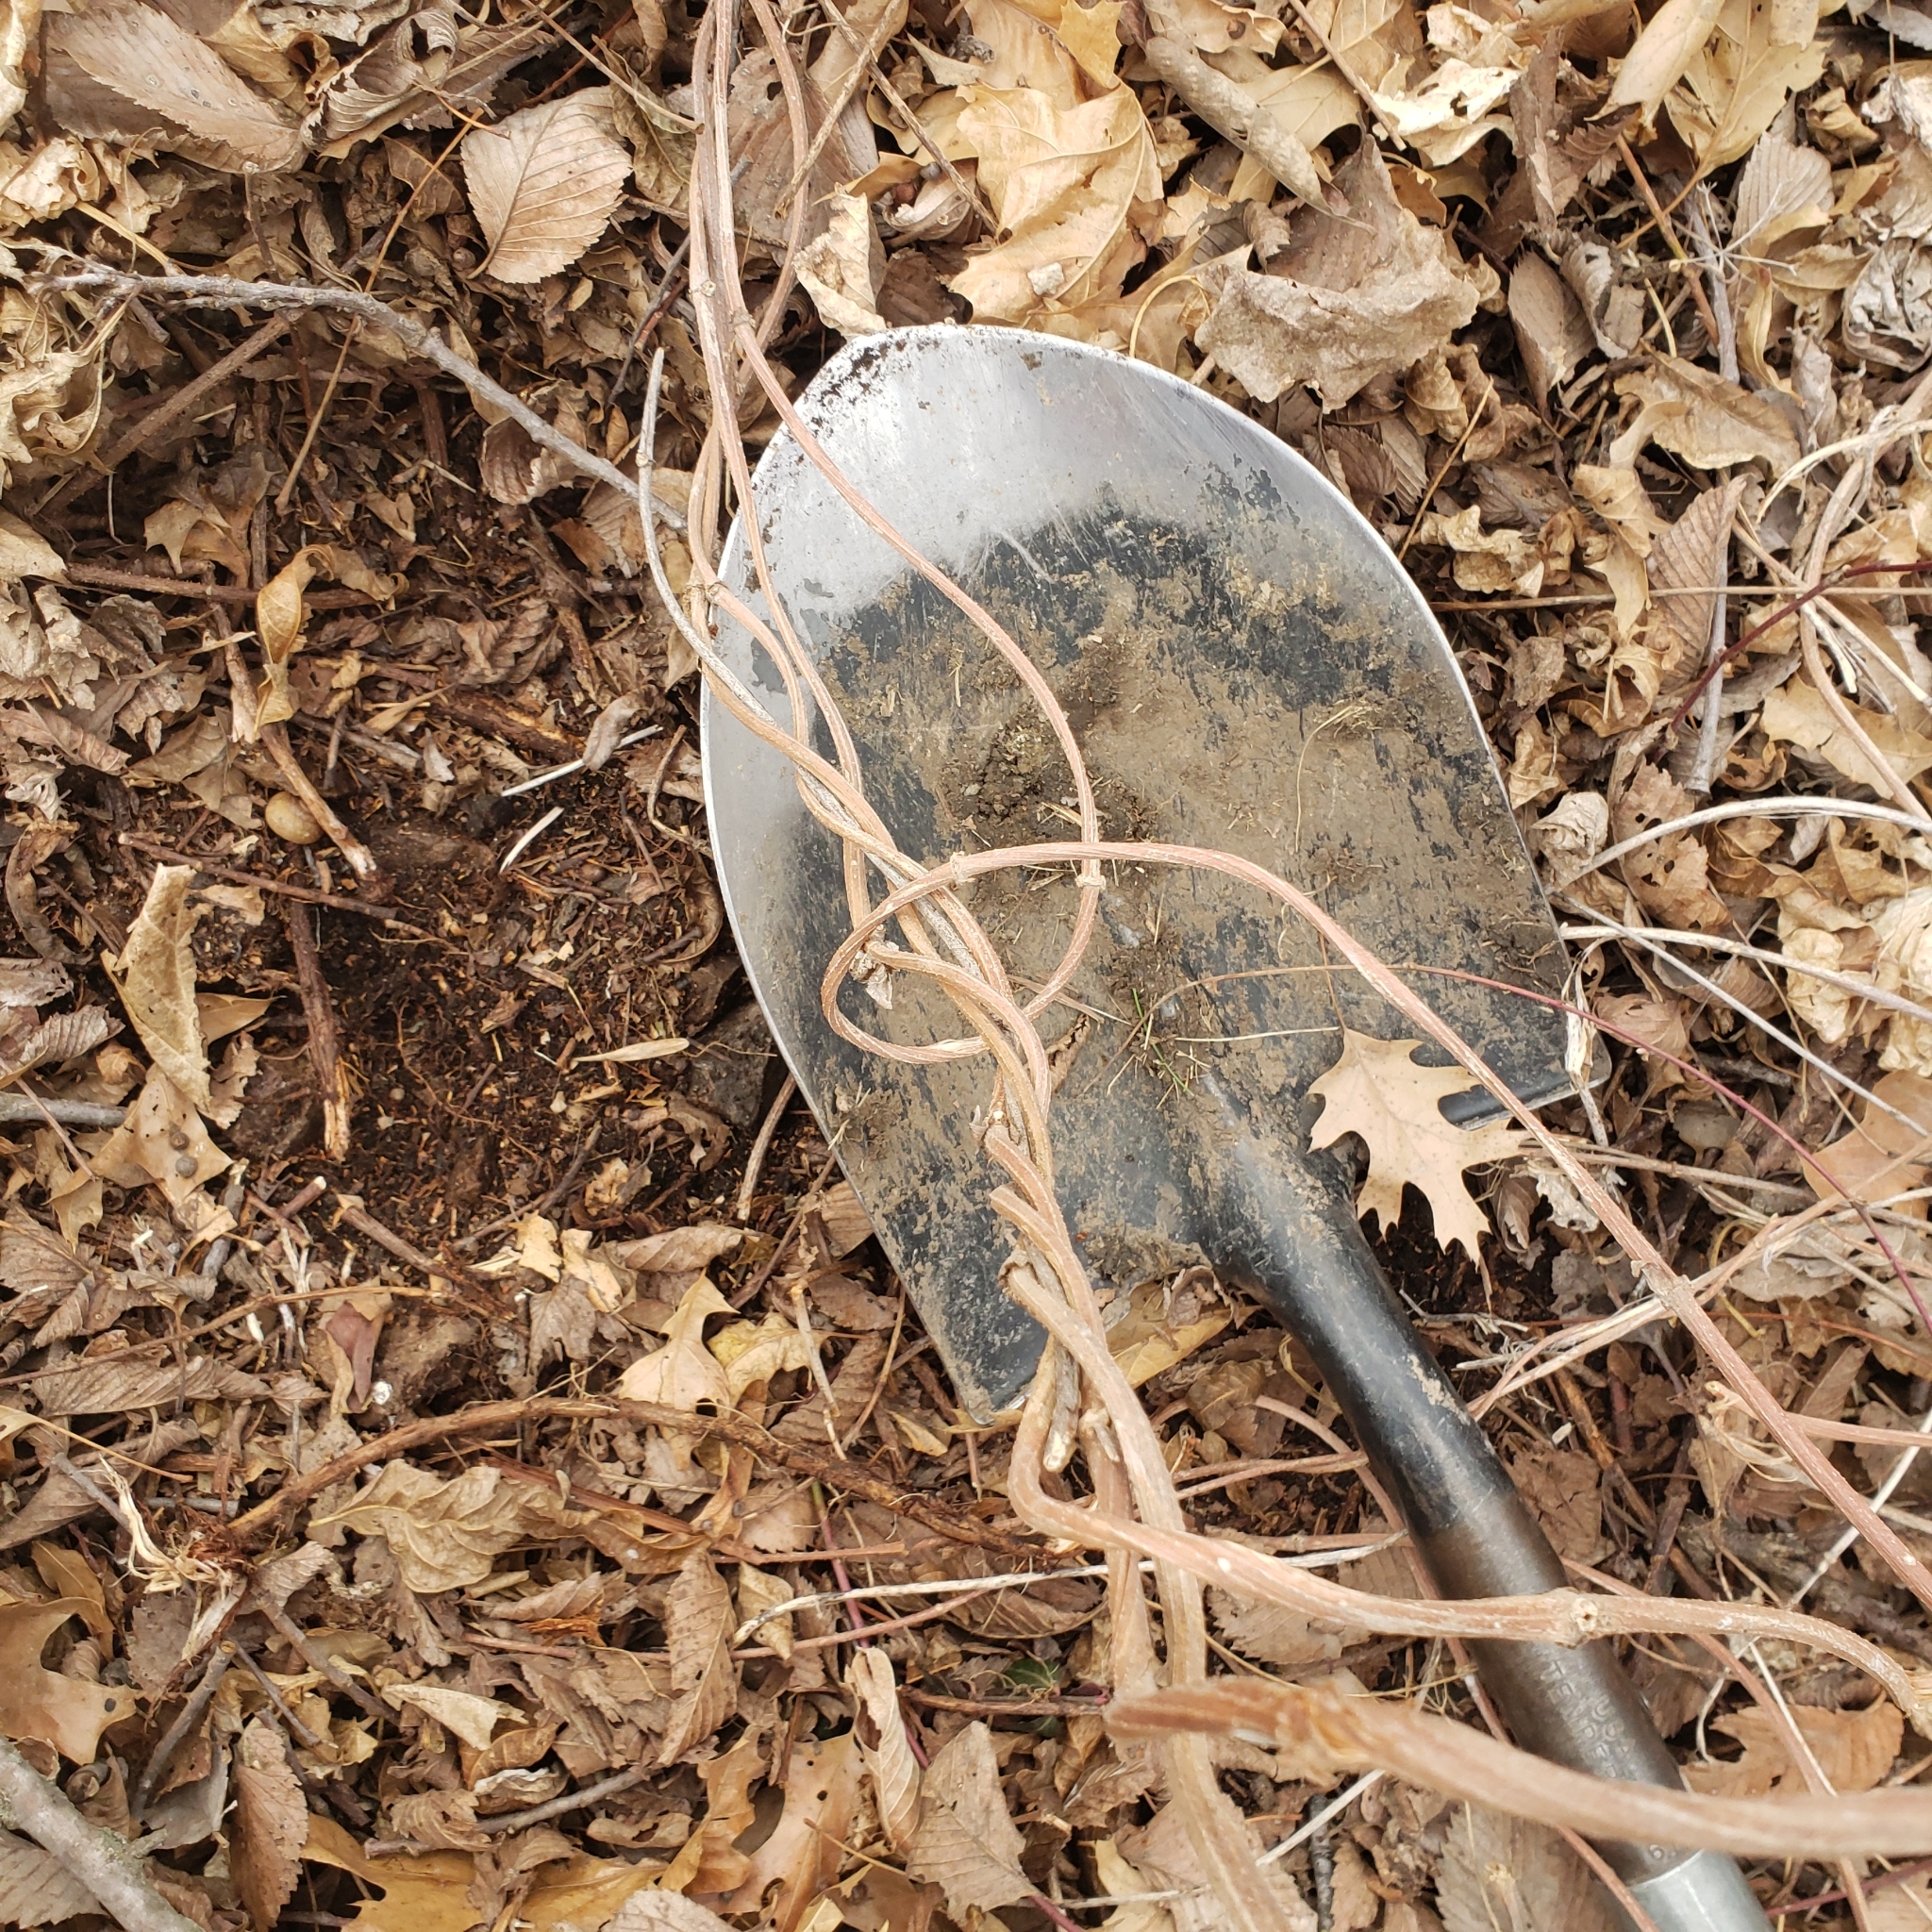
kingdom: Plantae
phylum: Tracheophyta
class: Magnoliopsida
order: Rosales
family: Cannabaceae
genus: Humulus
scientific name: Humulus lupulus
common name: Hop
